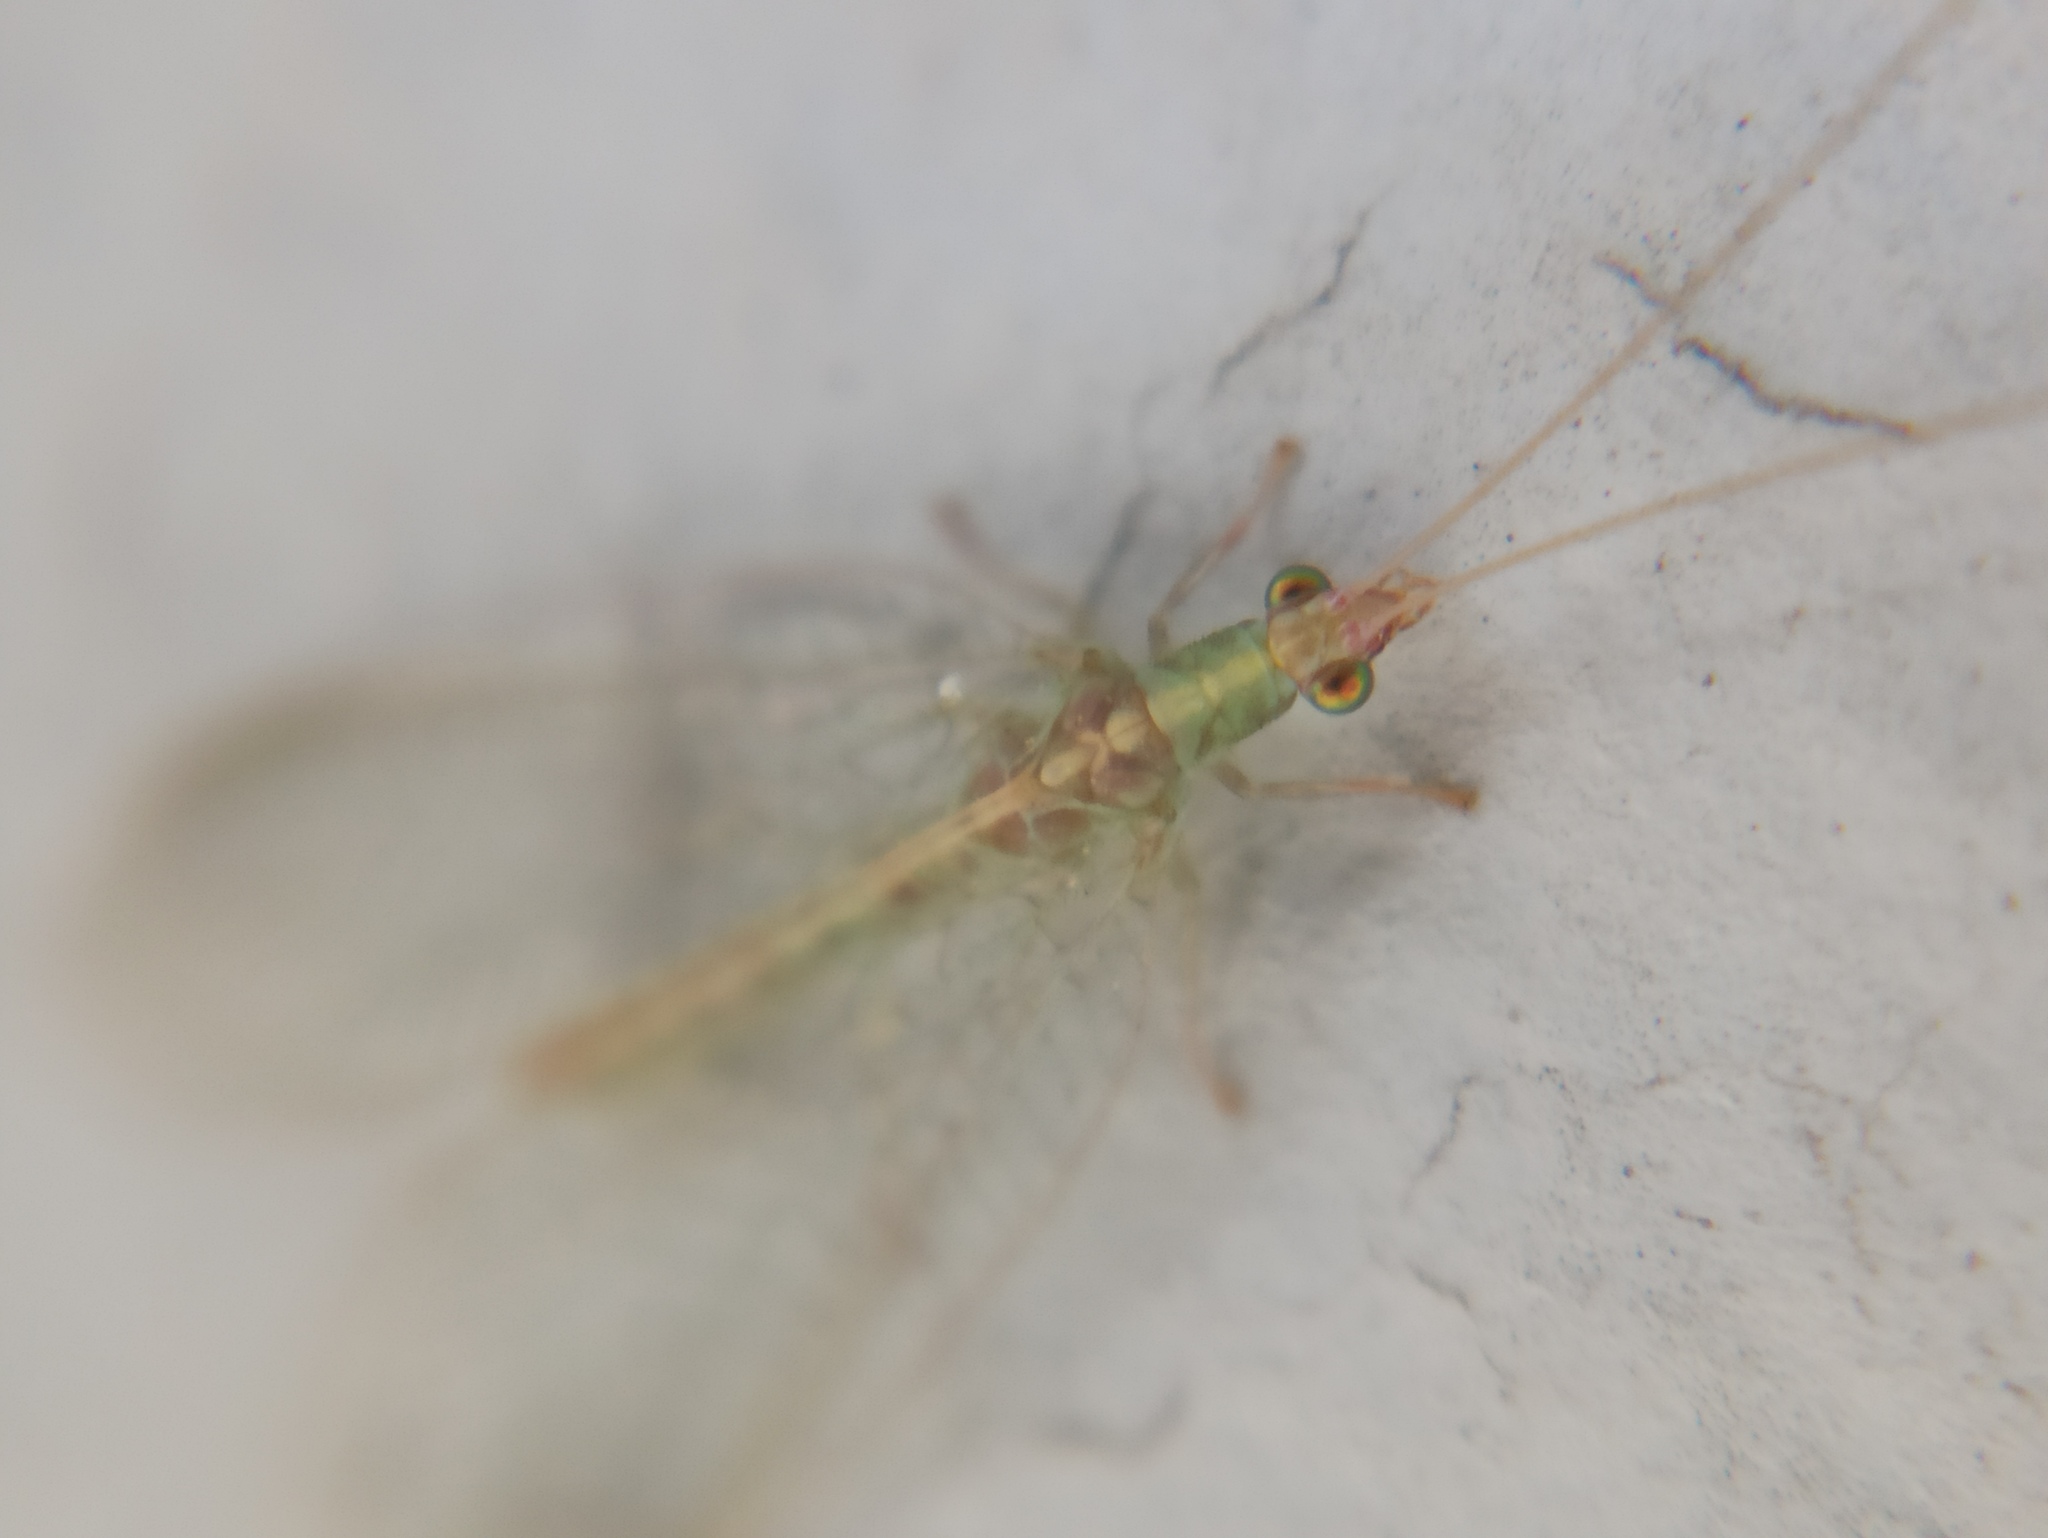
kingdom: Animalia
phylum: Arthropoda
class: Insecta
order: Neuroptera
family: Chrysopidae
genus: Chrysoperla
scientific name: Chrysoperla
